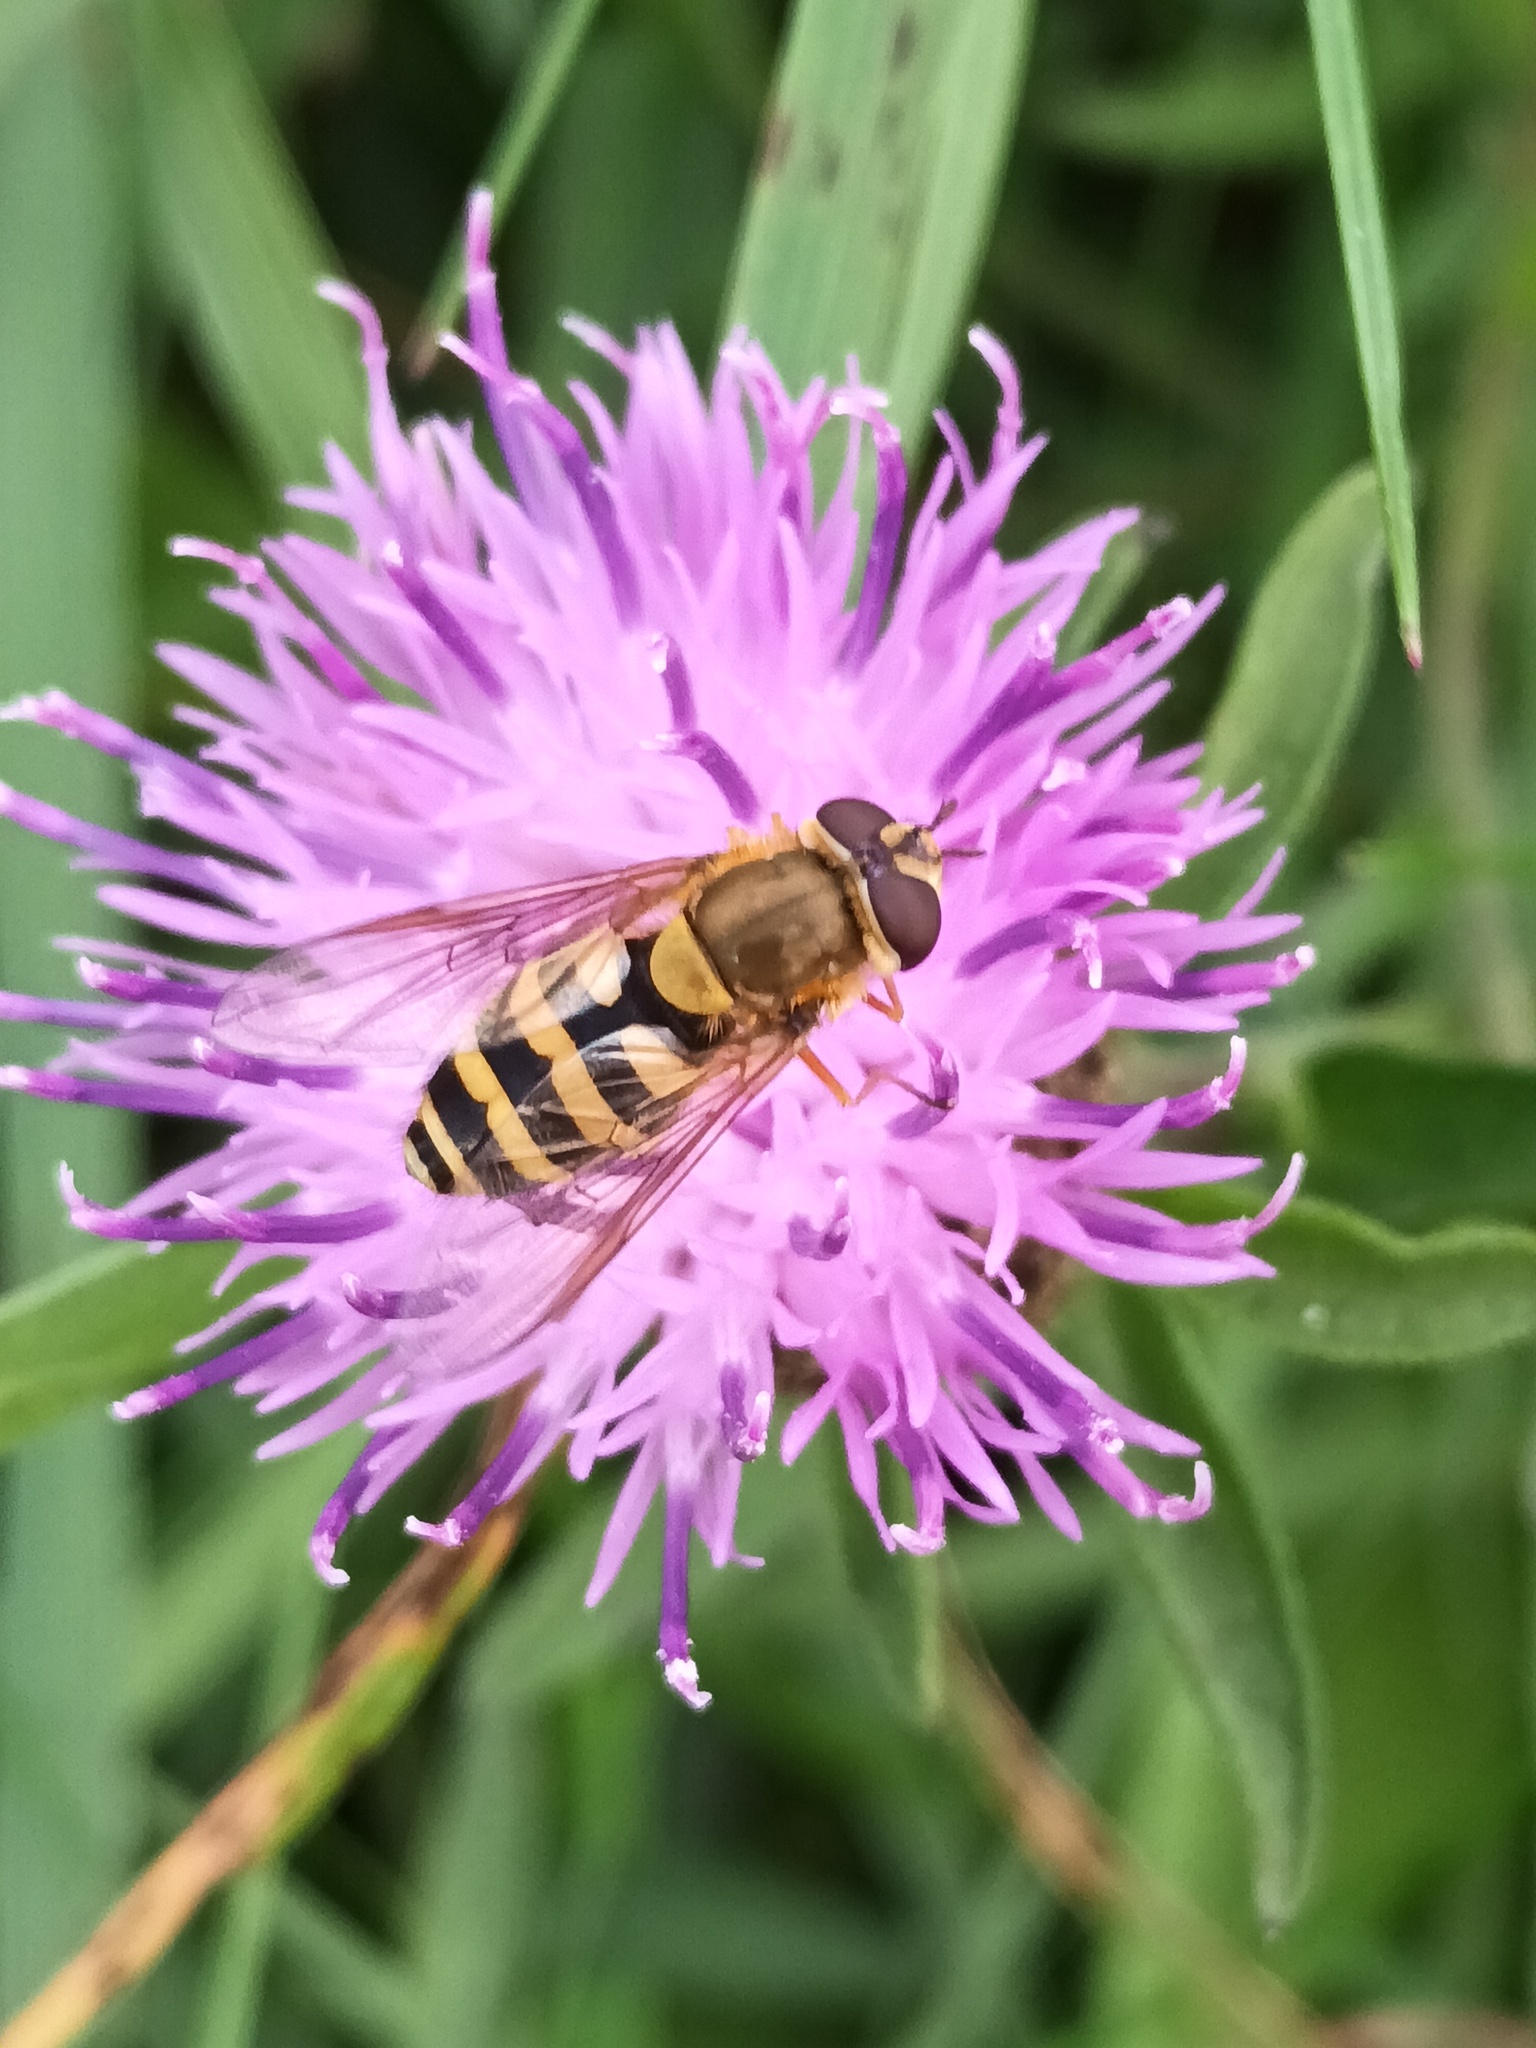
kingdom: Animalia
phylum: Arthropoda
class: Insecta
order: Diptera
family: Syrphidae
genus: Syrphus
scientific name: Syrphus
